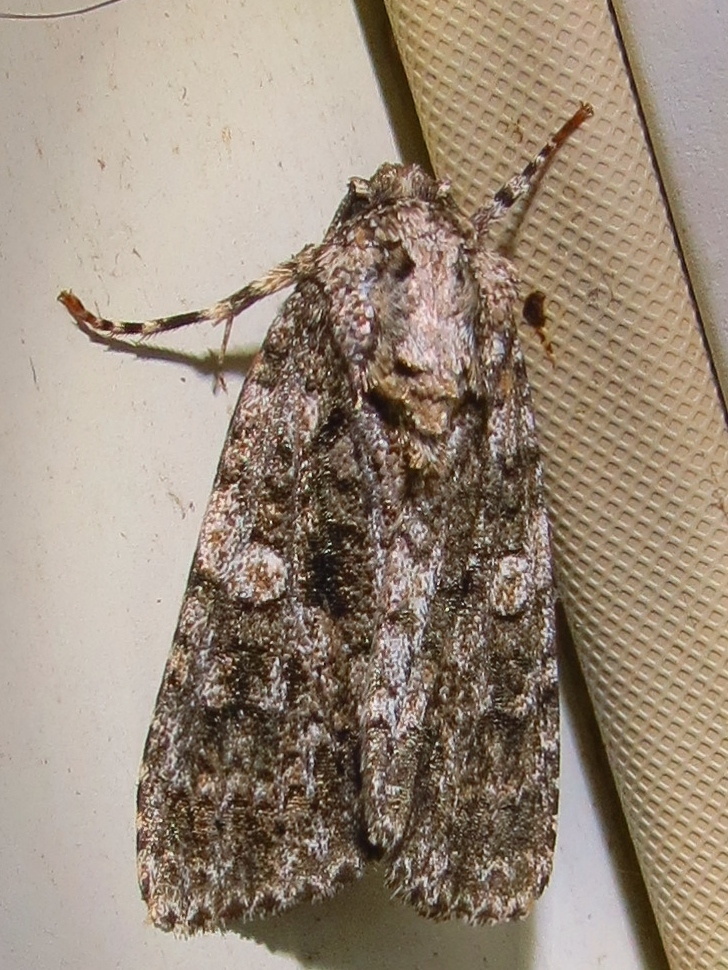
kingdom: Animalia
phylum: Arthropoda
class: Insecta
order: Lepidoptera
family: Noctuidae
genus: Acronicta
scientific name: Acronicta afflicta
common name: Afflicted dagger moth
